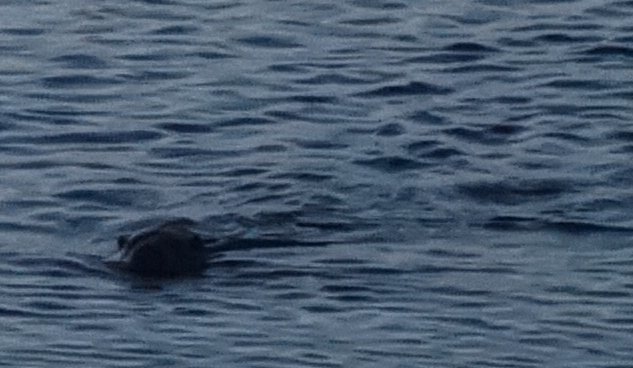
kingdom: Animalia
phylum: Chordata
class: Mammalia
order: Carnivora
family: Mustelidae
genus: Lutra
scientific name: Lutra lutra
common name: European otter
